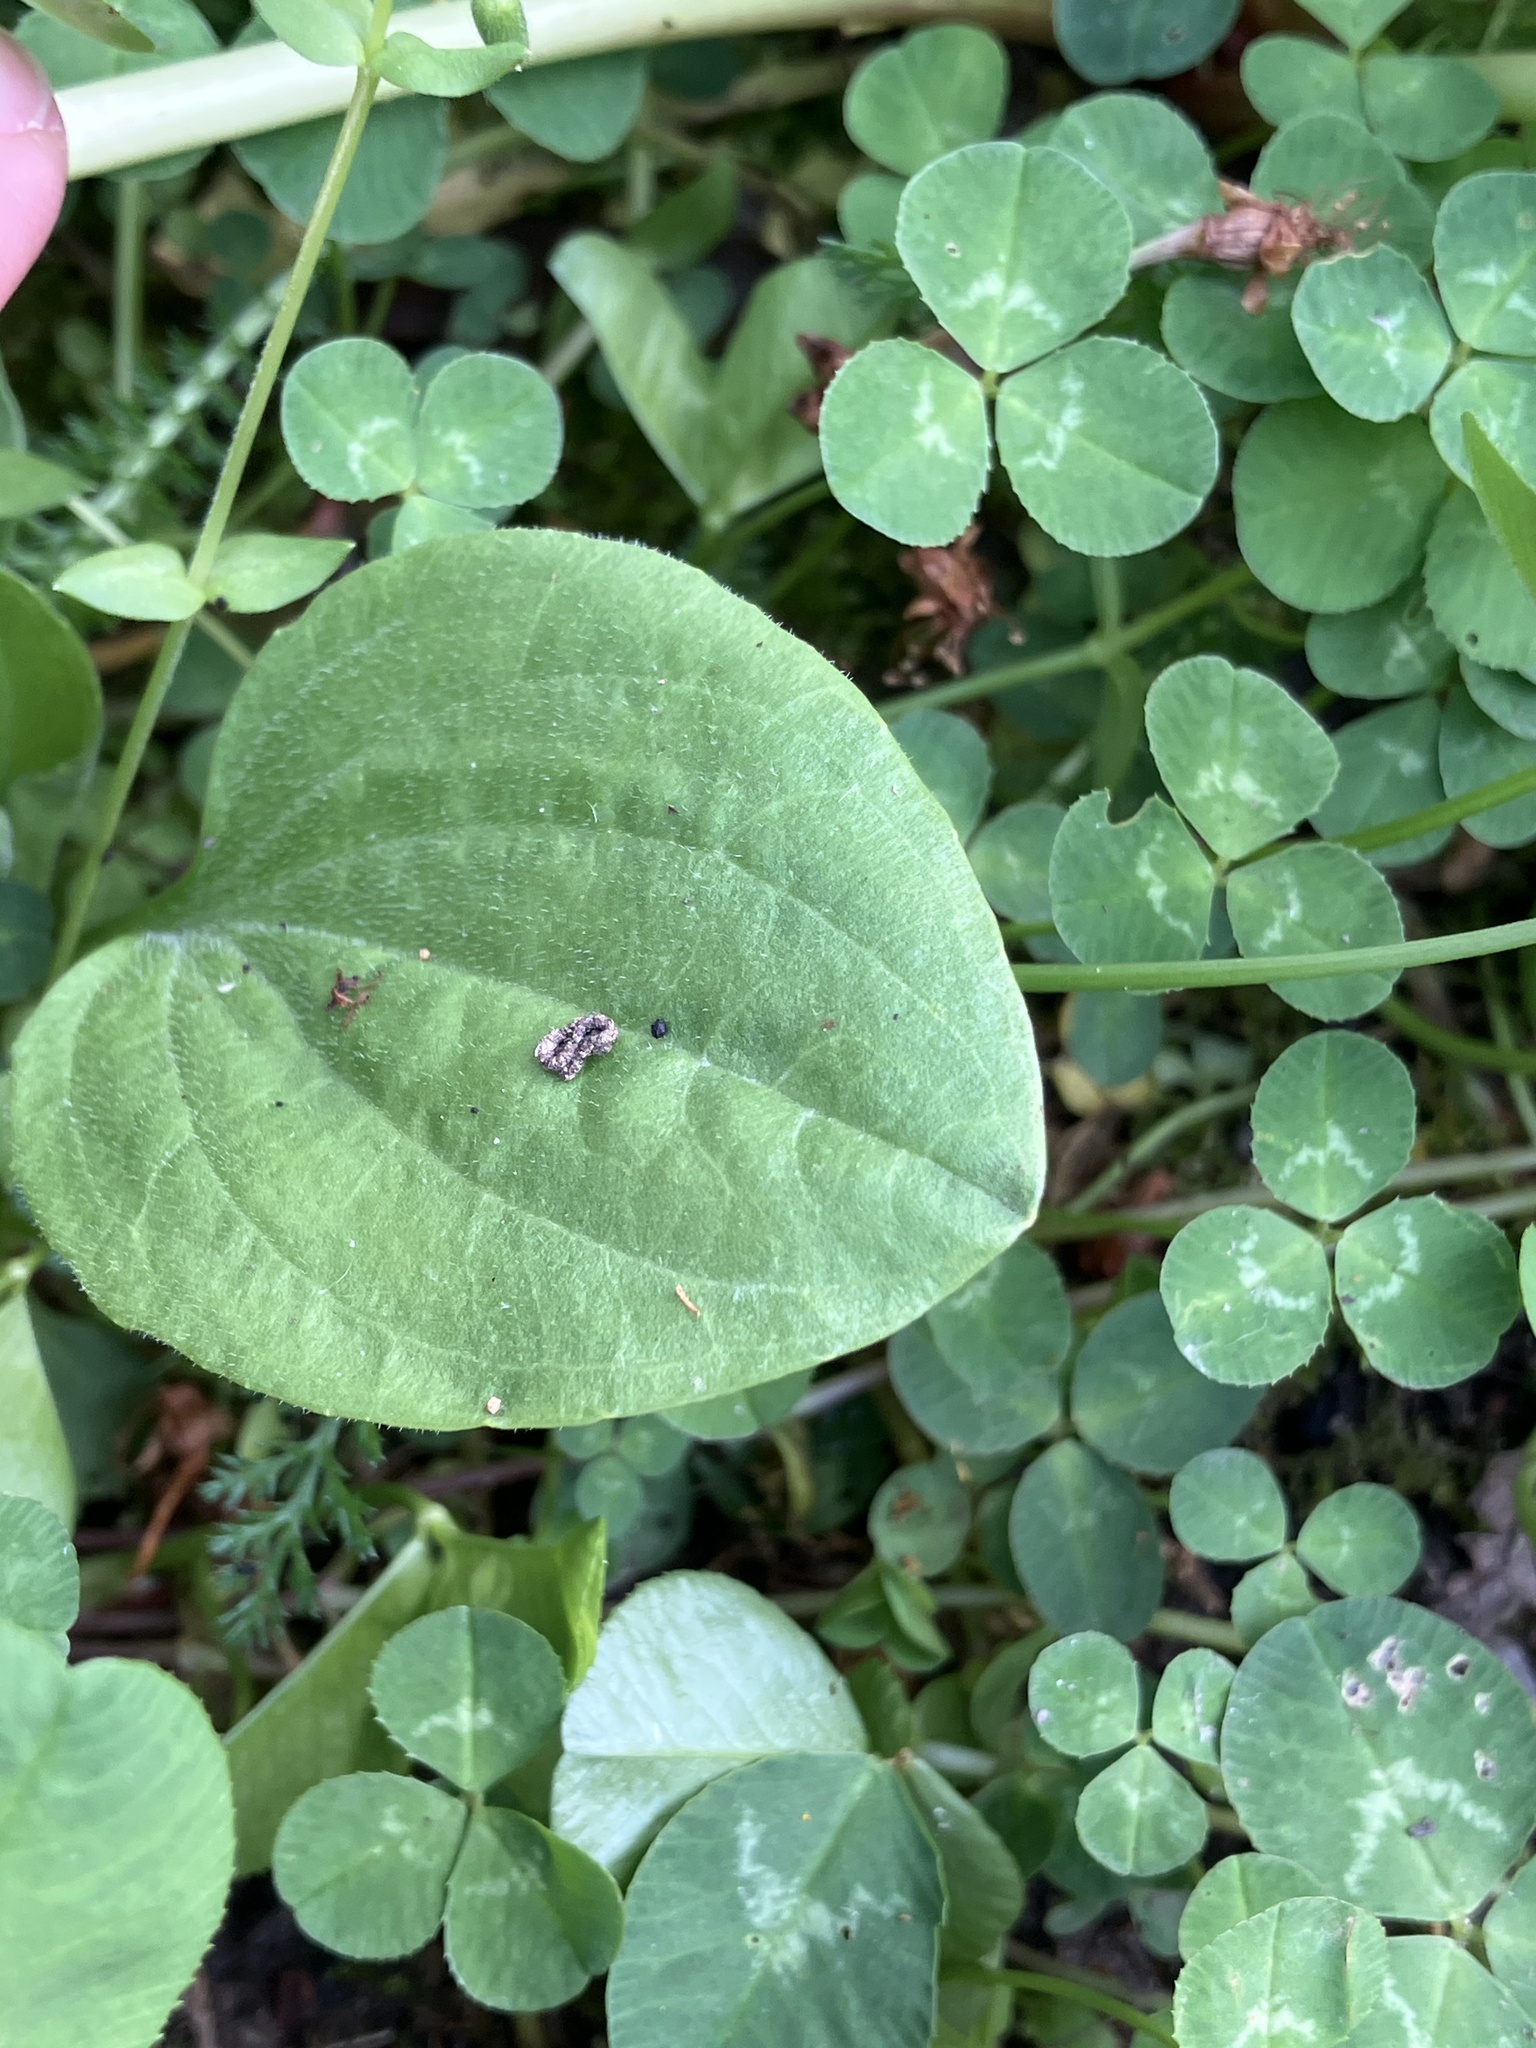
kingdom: Plantae
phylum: Tracheophyta
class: Magnoliopsida
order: Lamiales
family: Plantaginaceae
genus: Plantago
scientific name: Plantago major
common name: Common plantain
